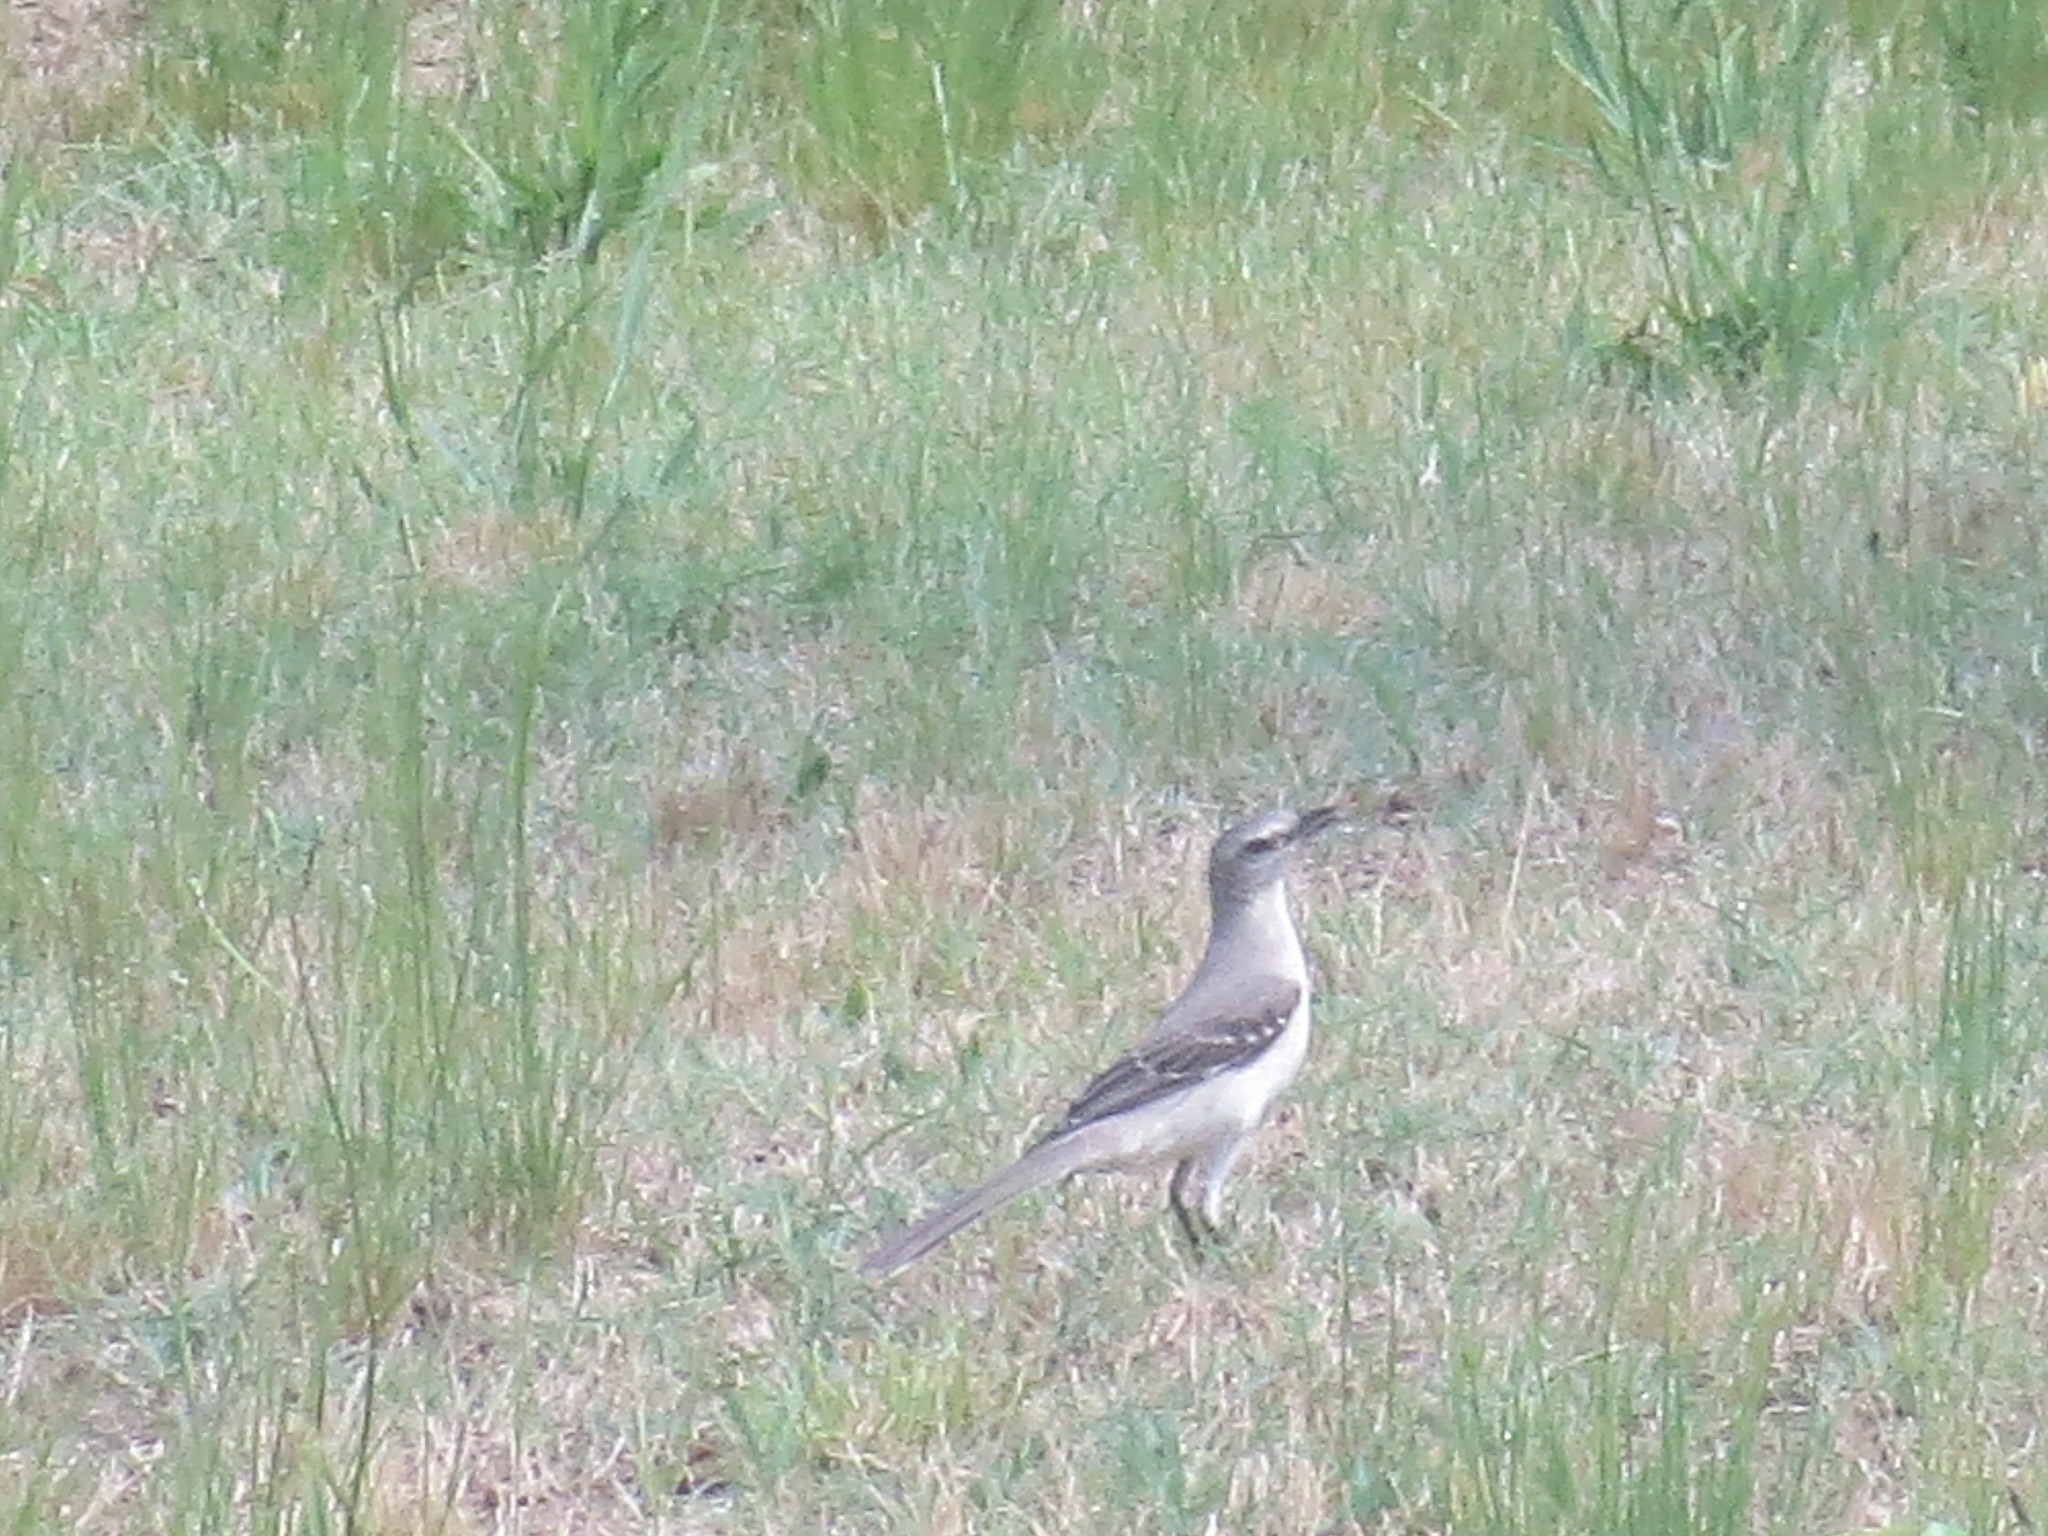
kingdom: Animalia
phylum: Chordata
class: Aves
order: Passeriformes
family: Mimidae
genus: Mimus
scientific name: Mimus polyglottos
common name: Northern mockingbird
